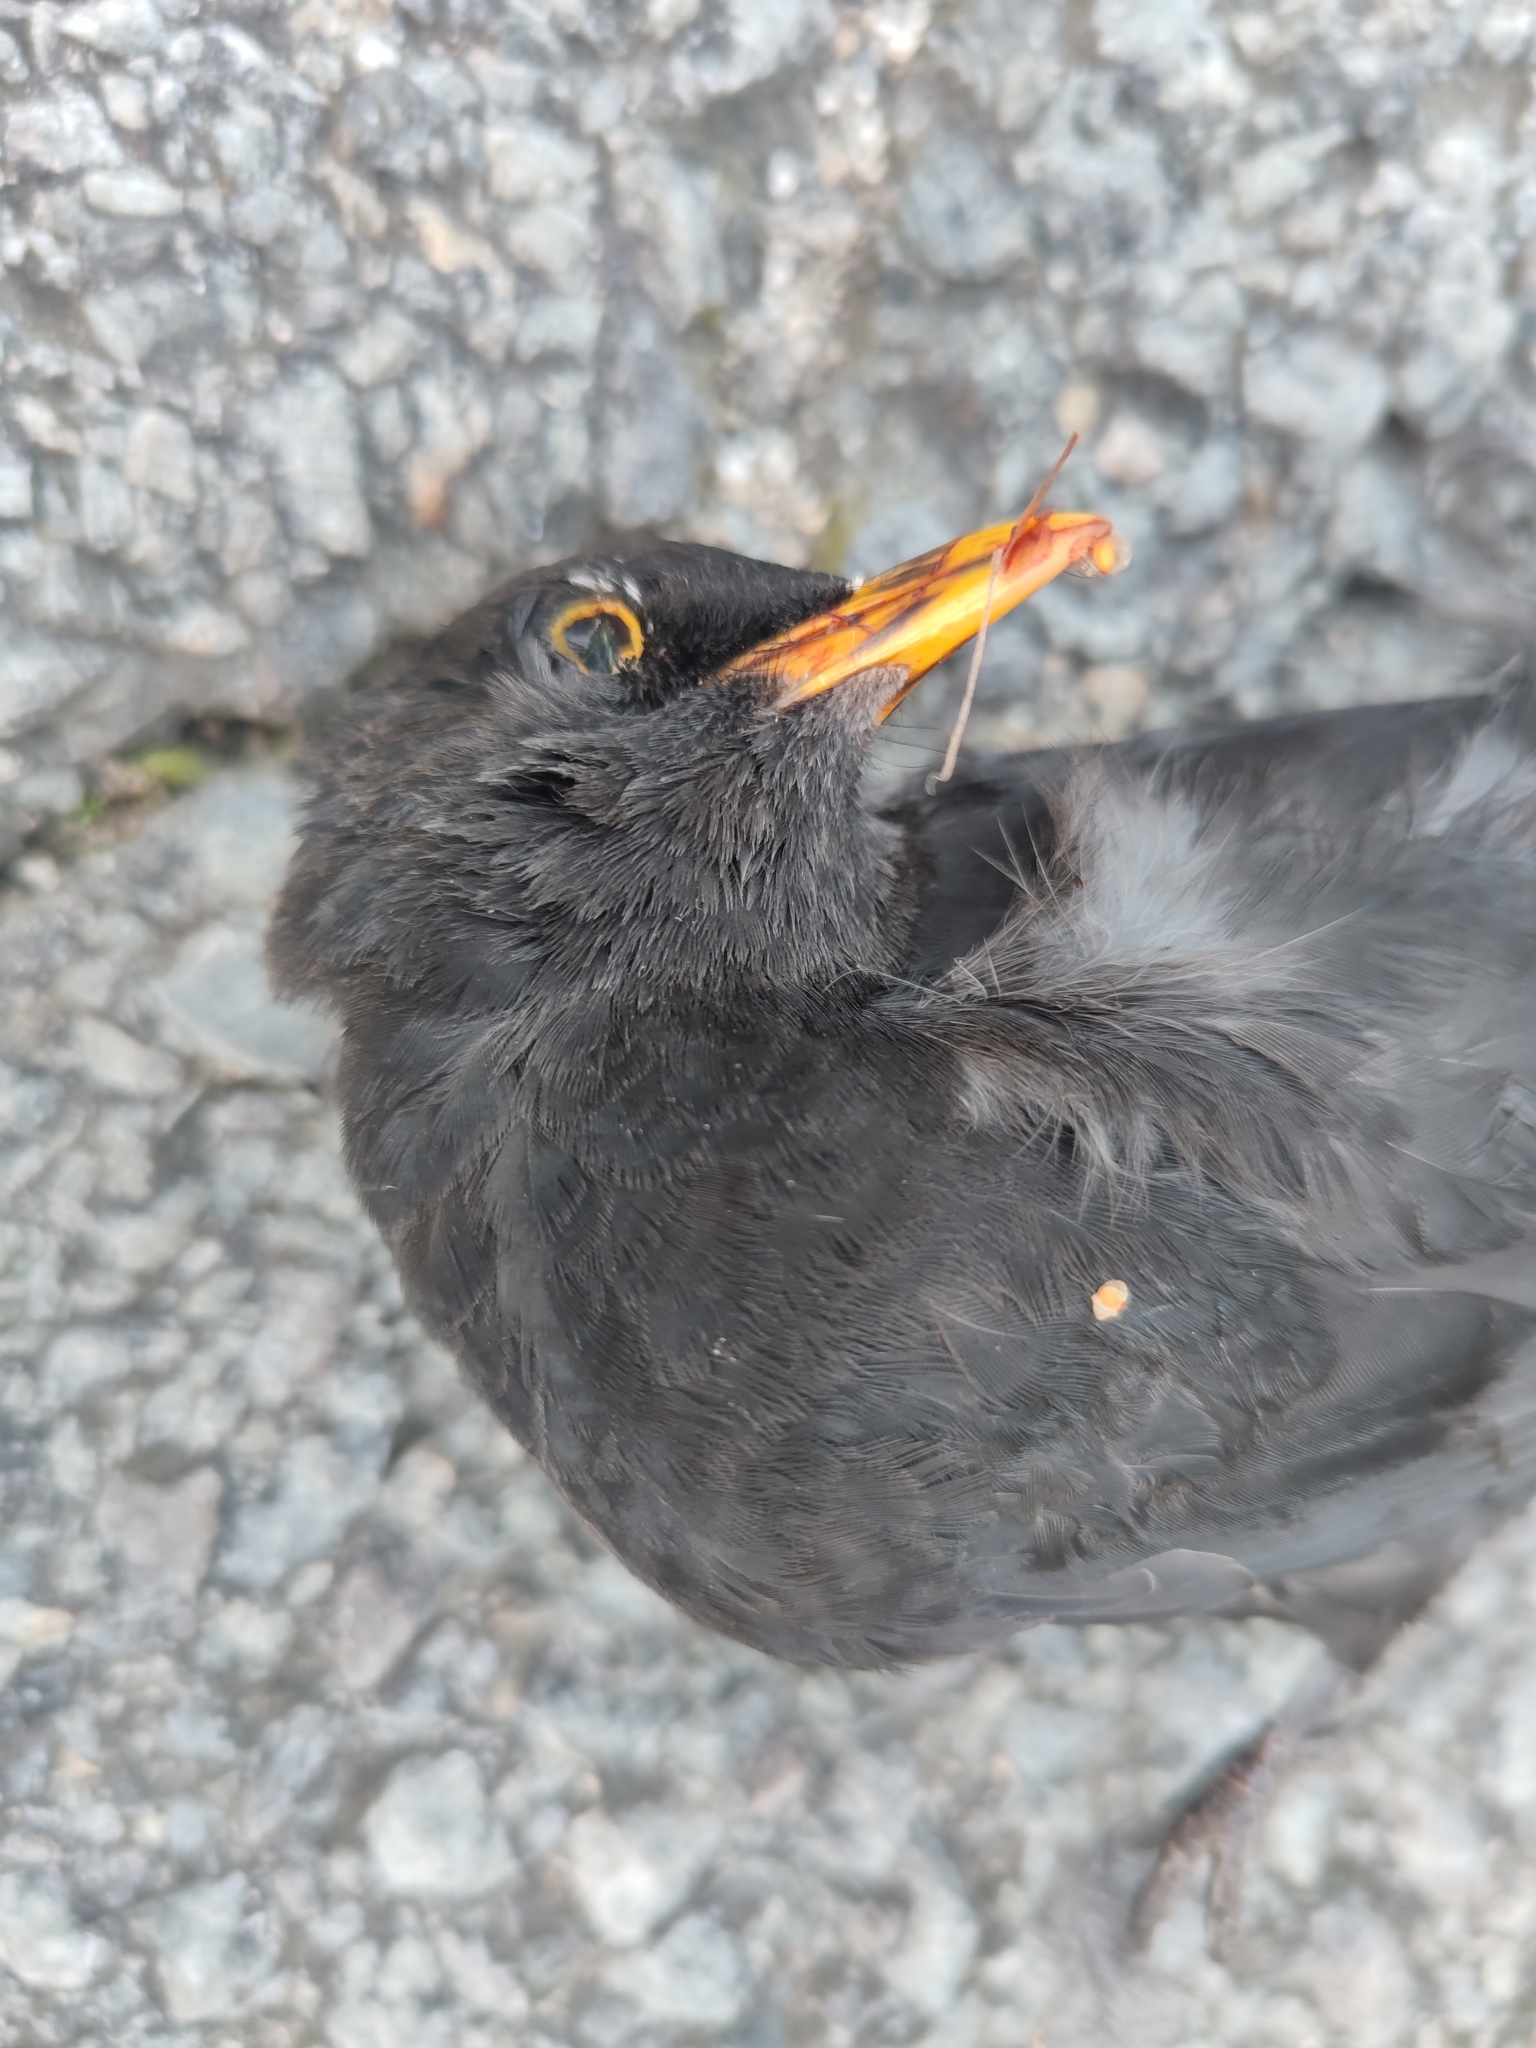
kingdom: Animalia
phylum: Chordata
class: Aves
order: Passeriformes
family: Turdidae
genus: Turdus
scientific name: Turdus merula
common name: Common blackbird
